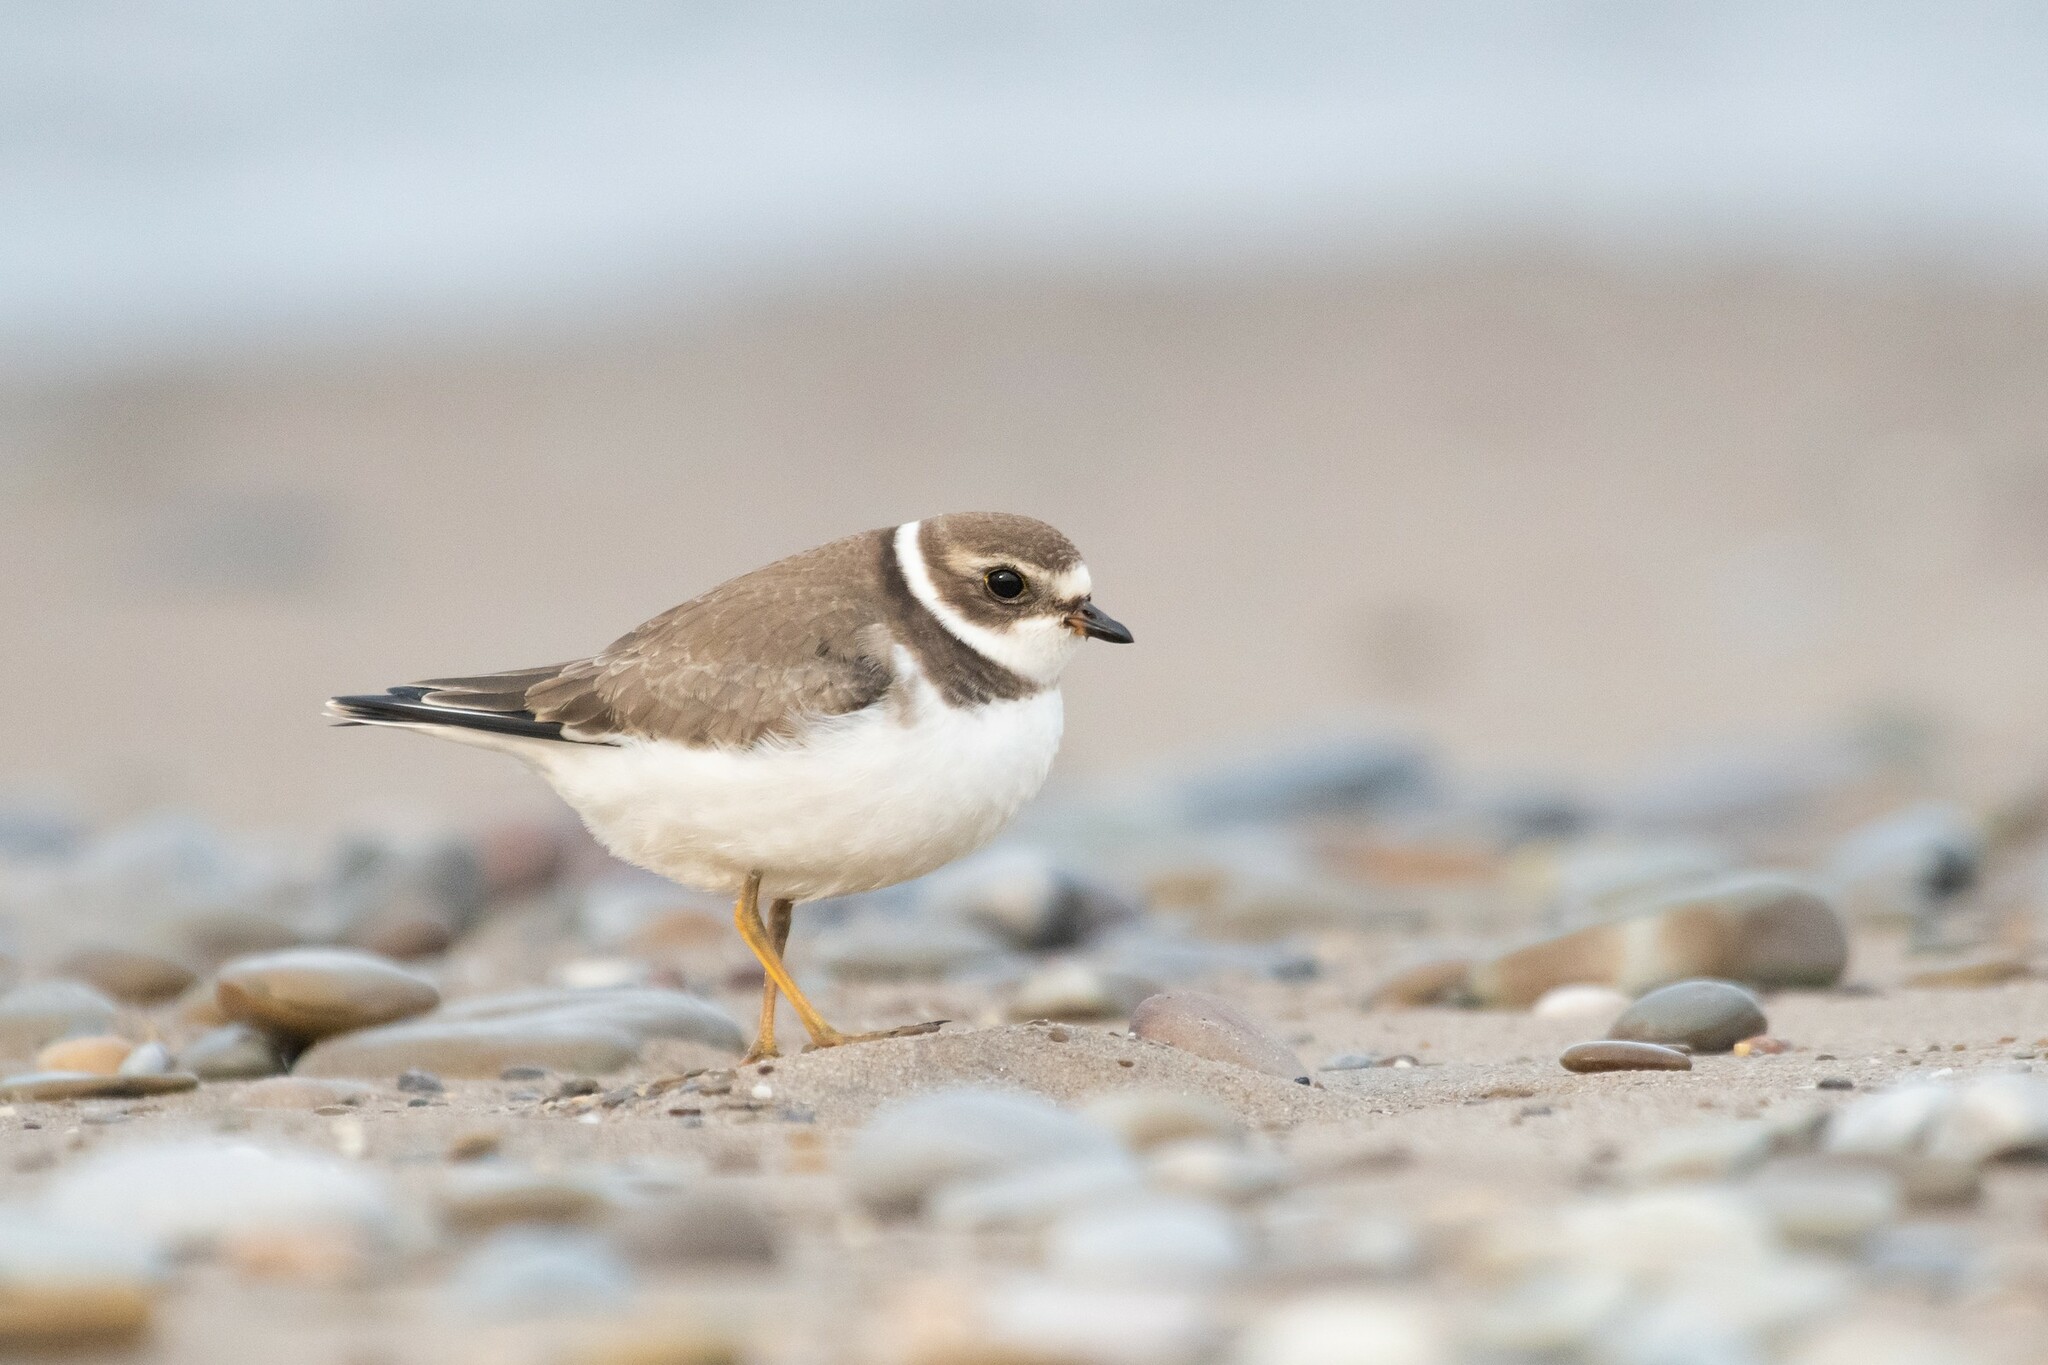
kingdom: Animalia
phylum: Chordata
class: Aves
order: Charadriiformes
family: Charadriidae
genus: Charadrius
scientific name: Charadrius semipalmatus
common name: Semipalmated plover
